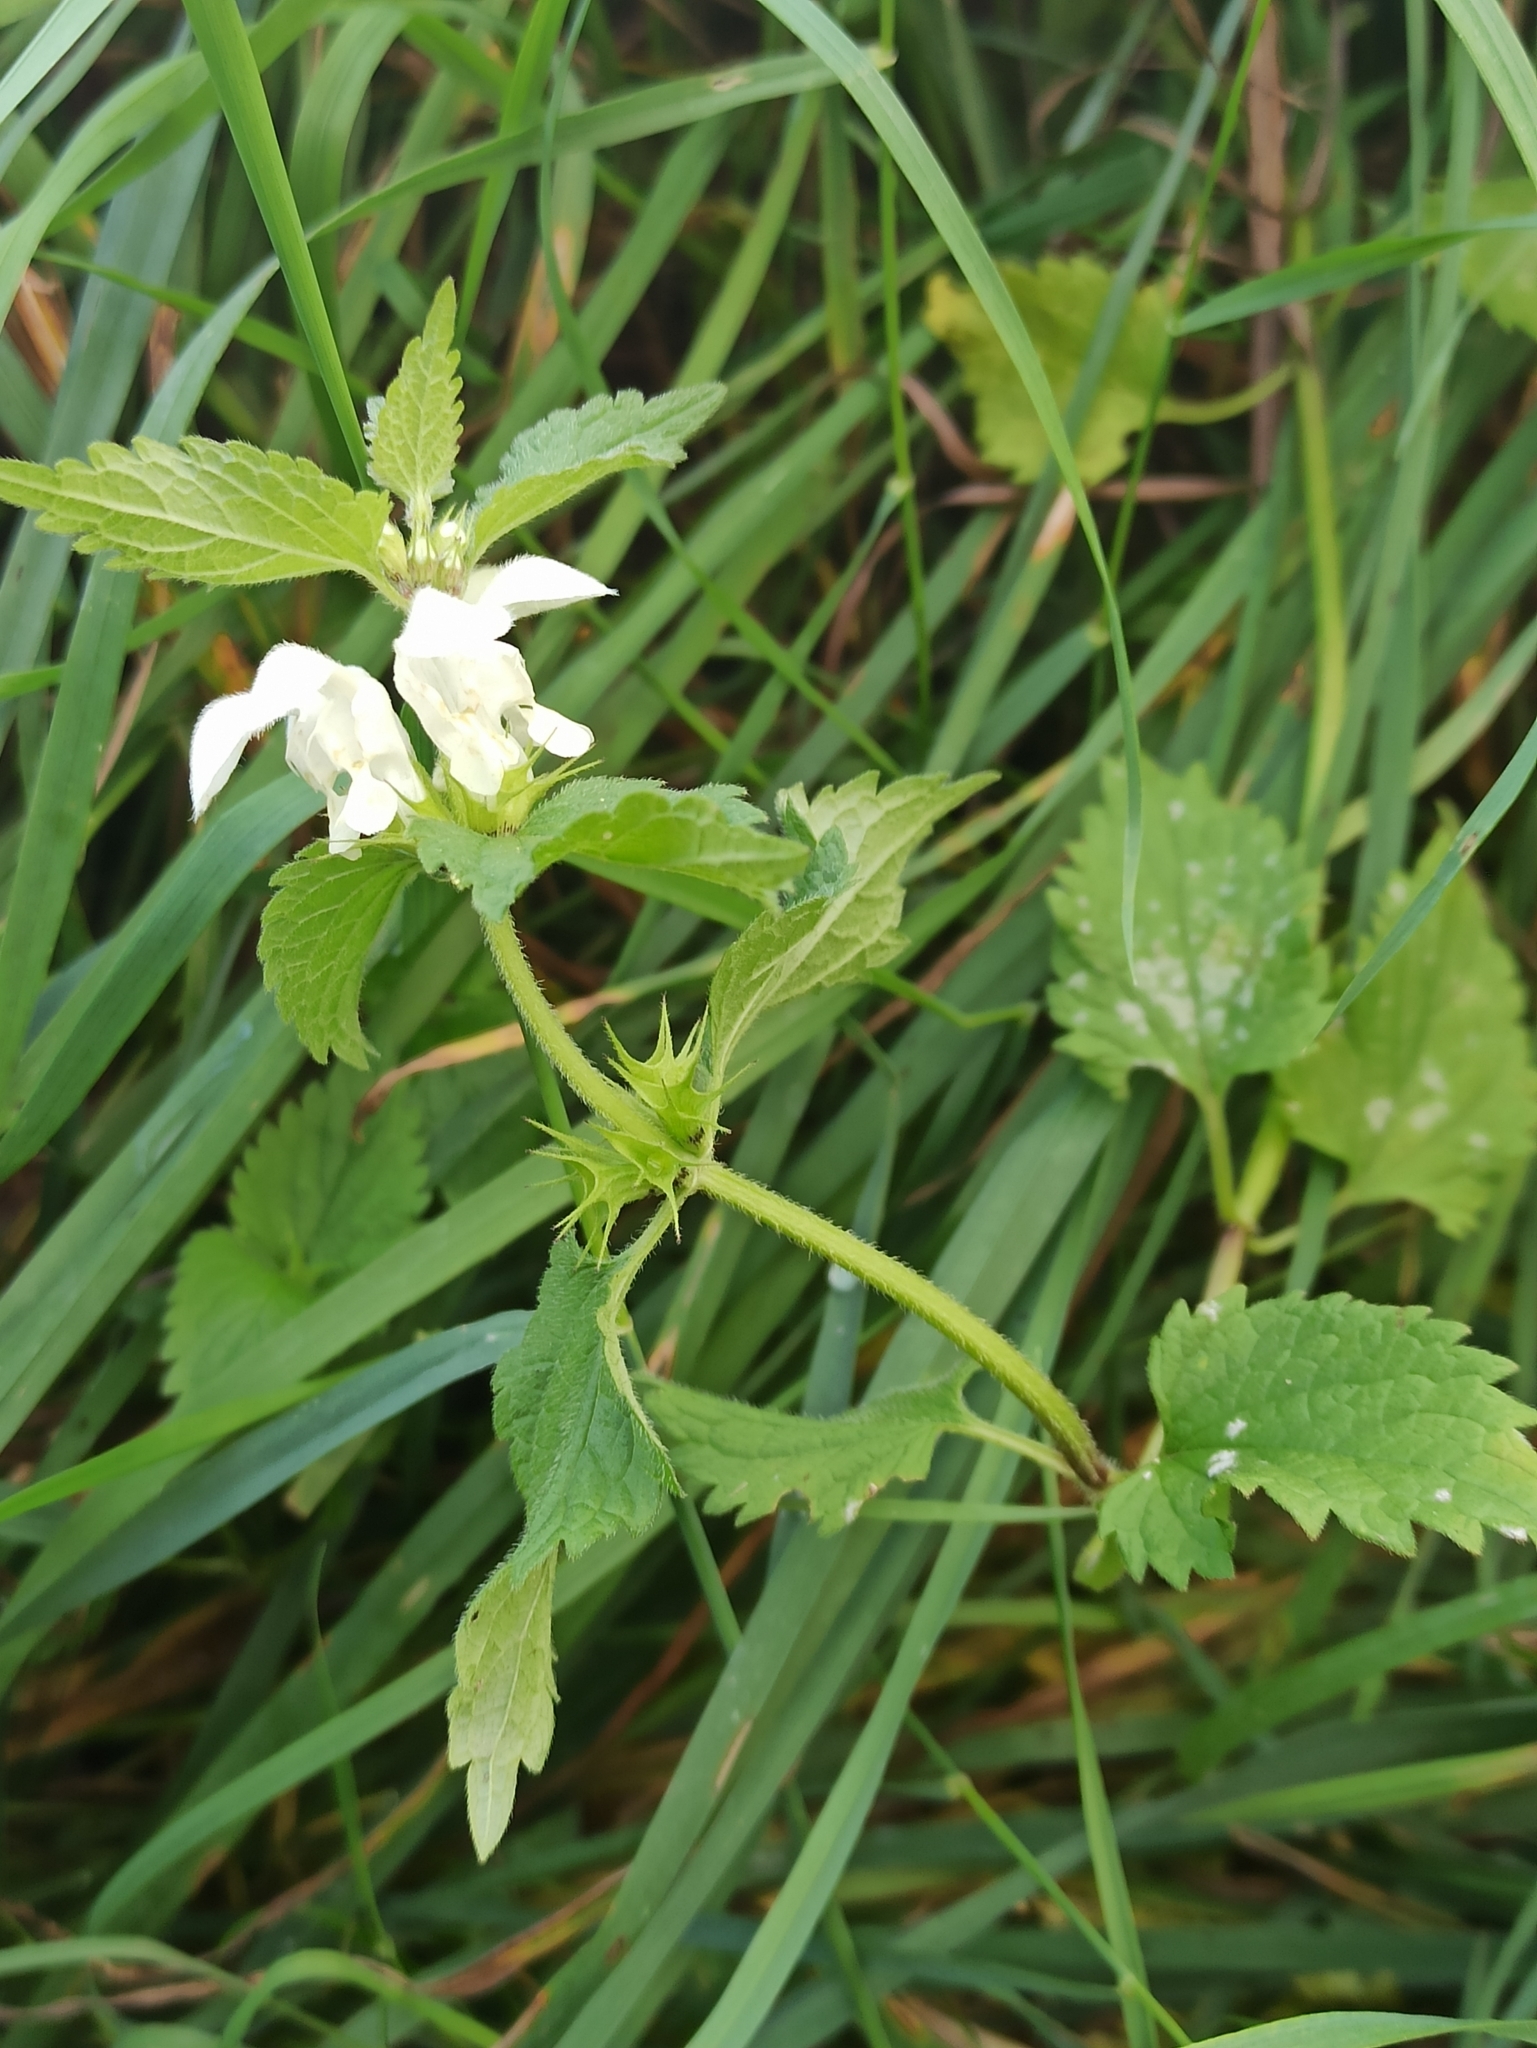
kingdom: Plantae
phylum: Tracheophyta
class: Magnoliopsida
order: Lamiales
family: Lamiaceae
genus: Lamium
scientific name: Lamium album
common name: White dead-nettle
